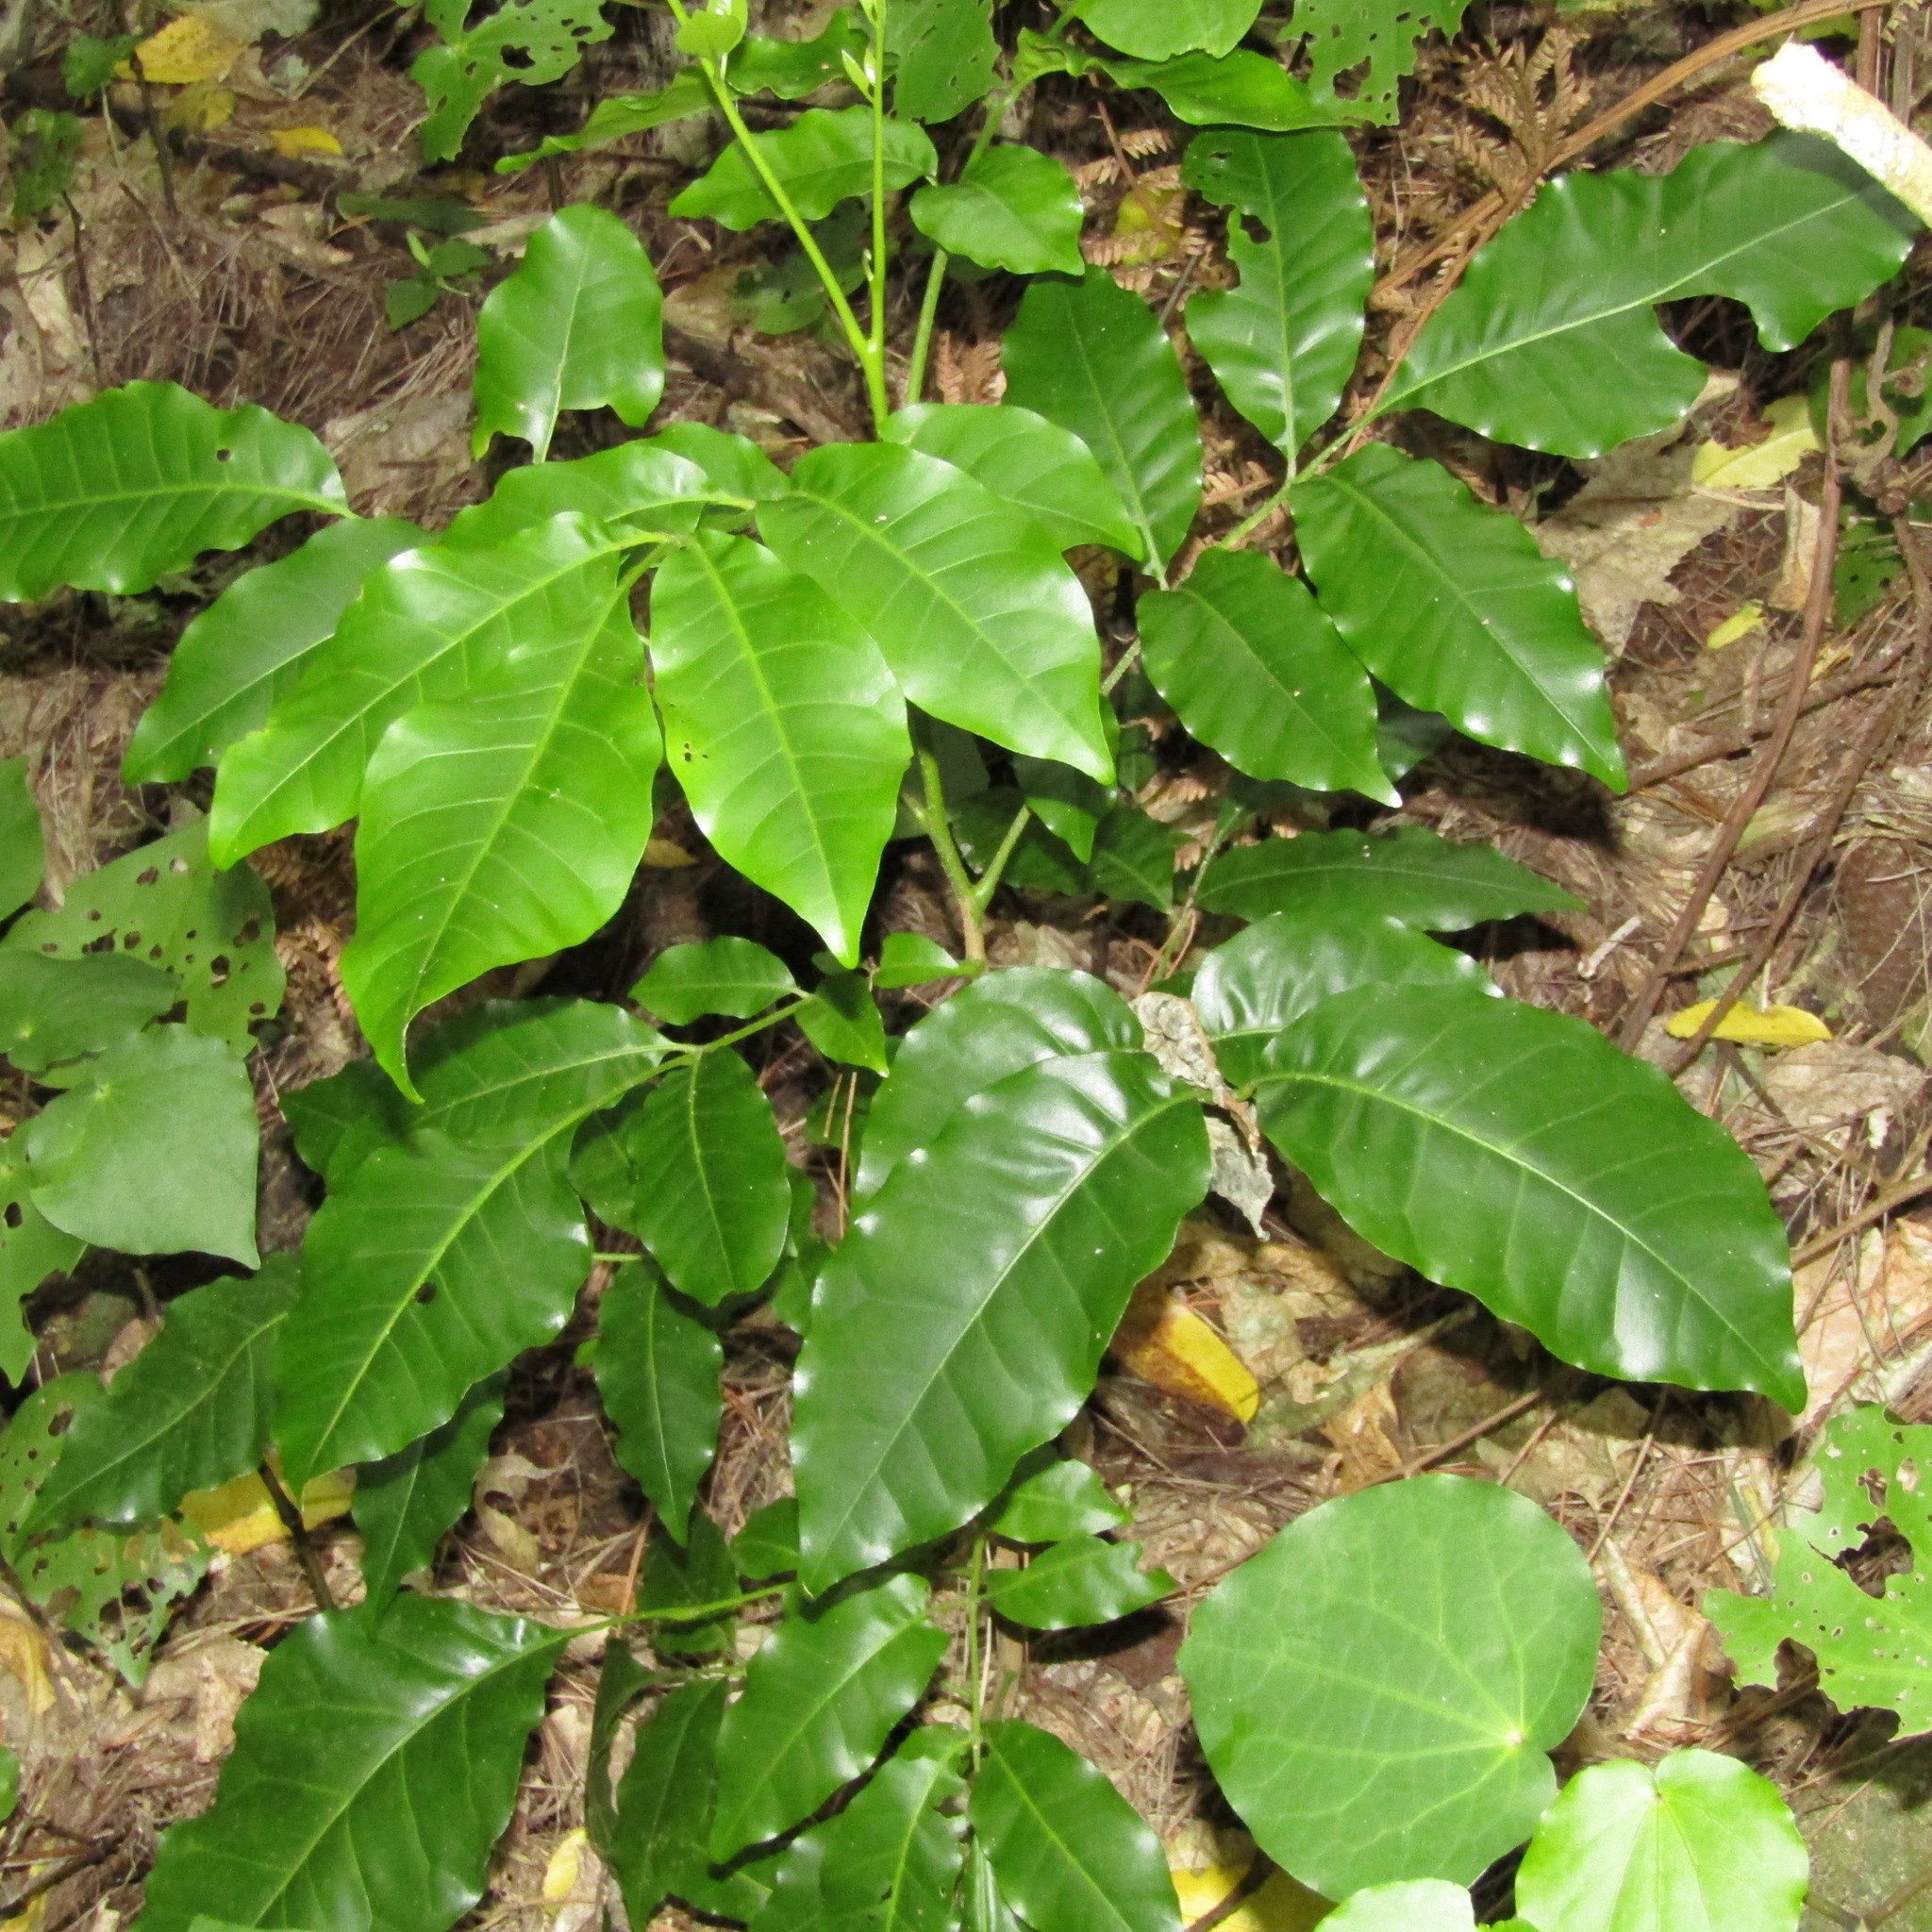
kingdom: Plantae
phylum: Tracheophyta
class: Magnoliopsida
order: Sapindales
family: Meliaceae
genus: Didymocheton
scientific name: Didymocheton spectabilis
